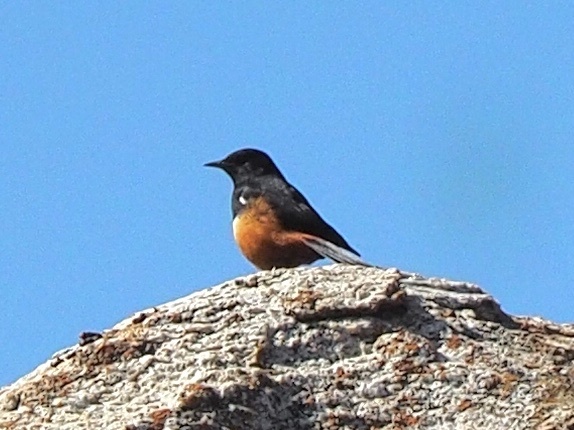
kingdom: Animalia
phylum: Chordata
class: Aves
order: Passeriformes
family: Muscicapidae
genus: Thamnolaea
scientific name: Thamnolaea cinnamomeiventris
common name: Mocking cliff chat
